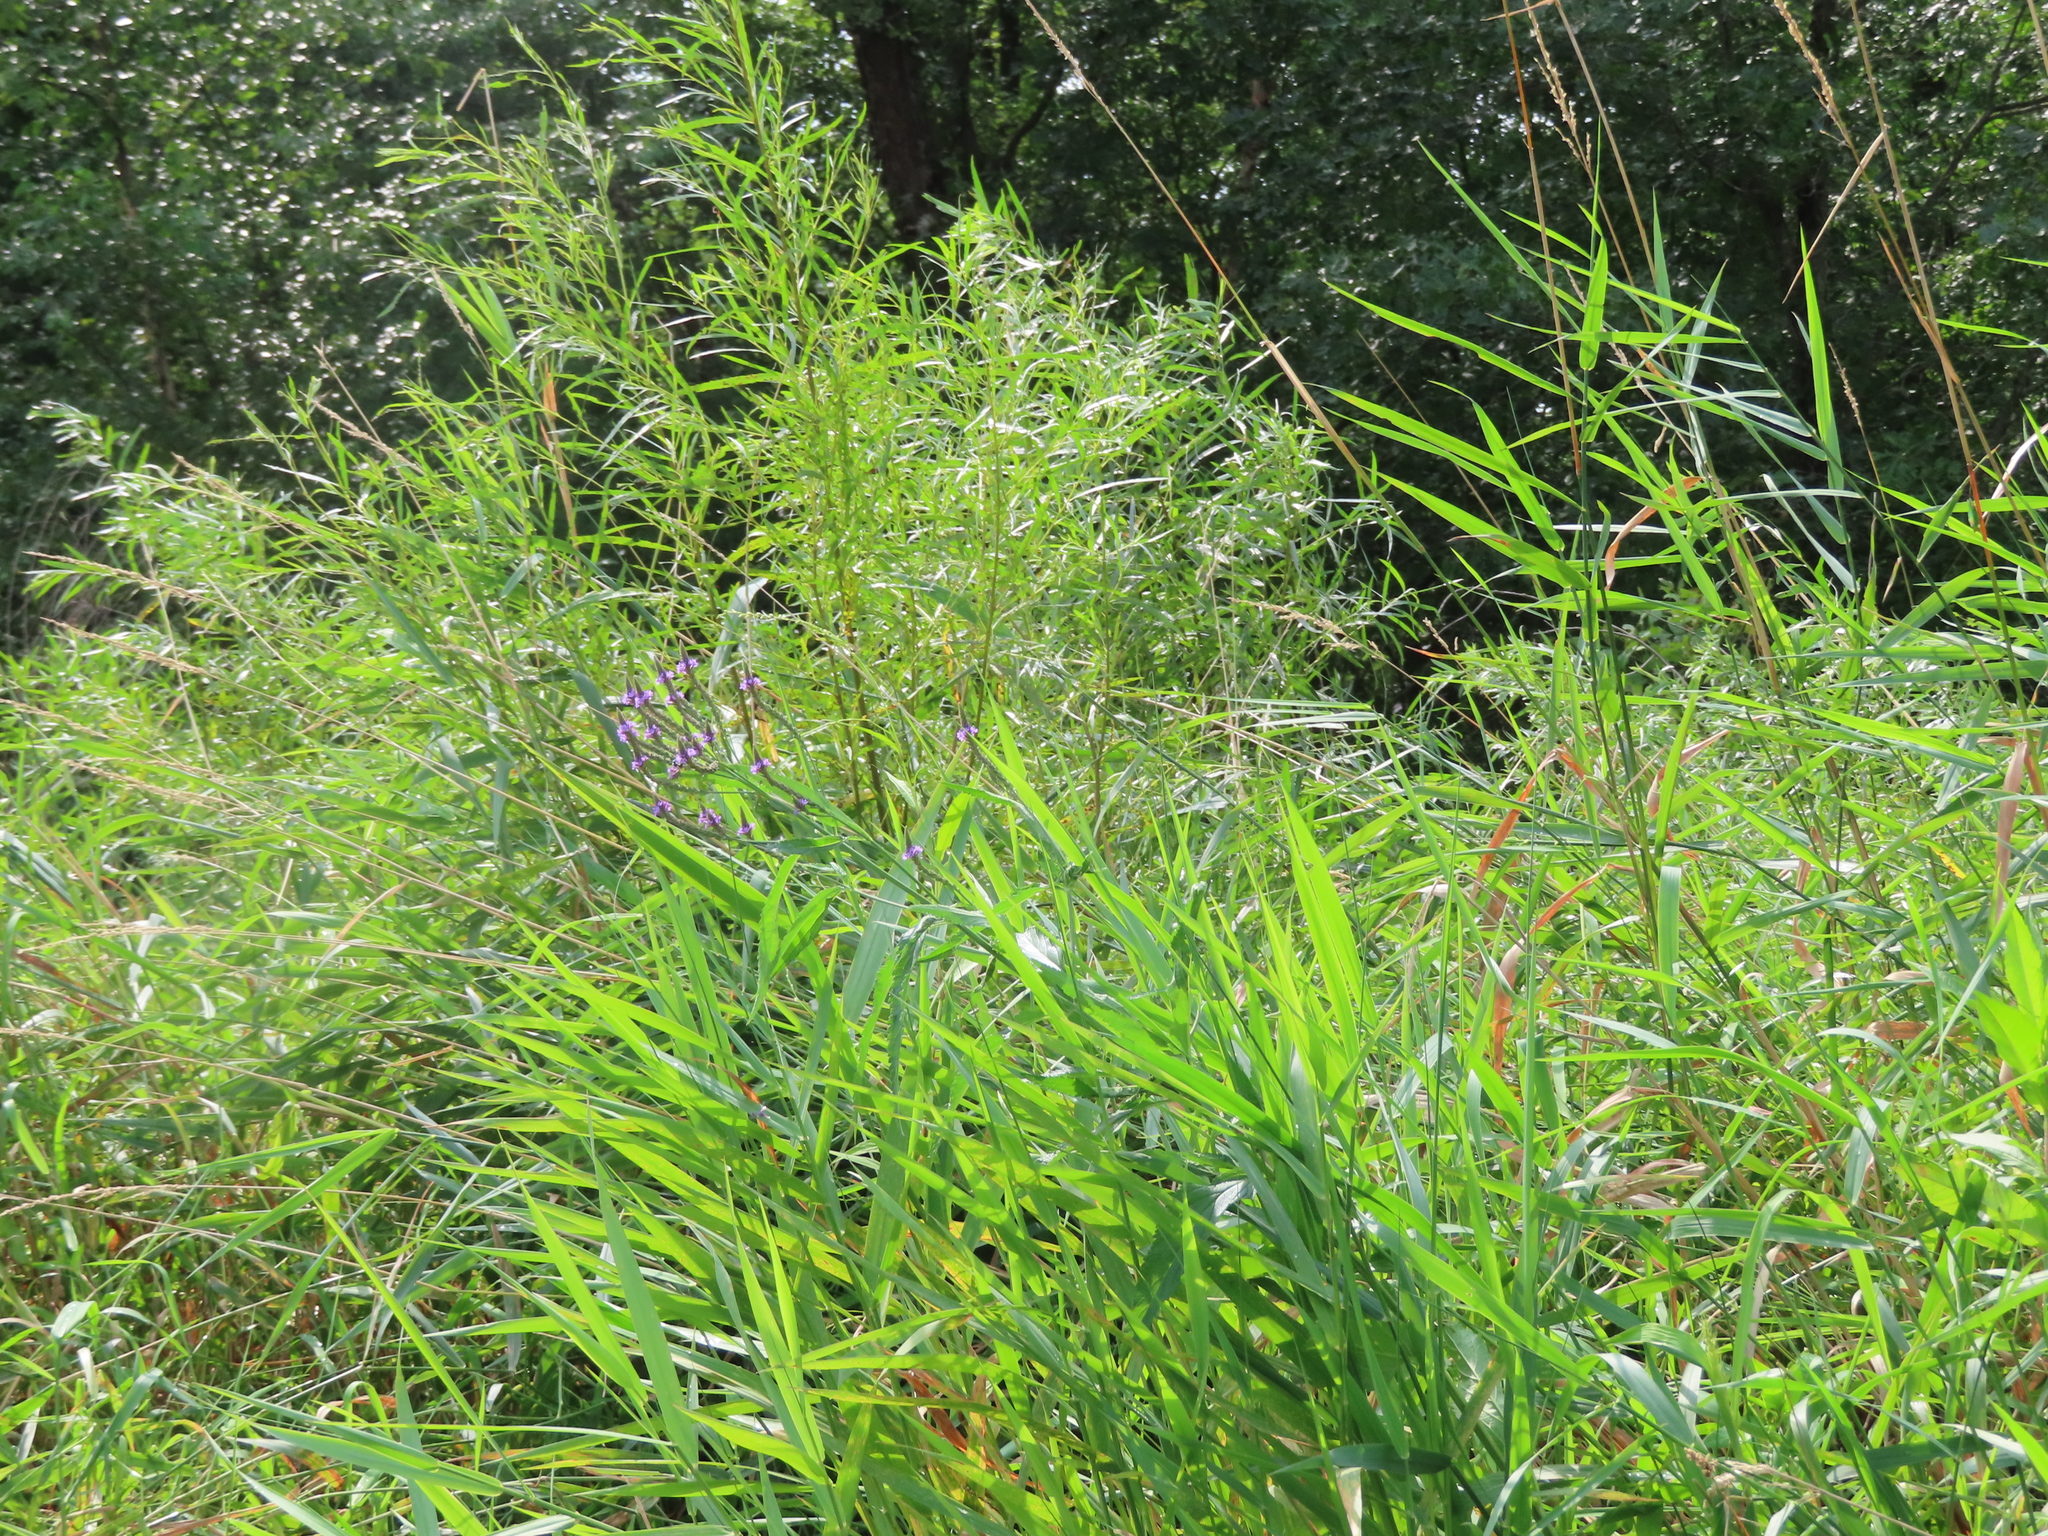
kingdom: Plantae
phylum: Tracheophyta
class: Magnoliopsida
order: Lamiales
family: Verbenaceae
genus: Verbena
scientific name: Verbena hastata
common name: American blue vervain
